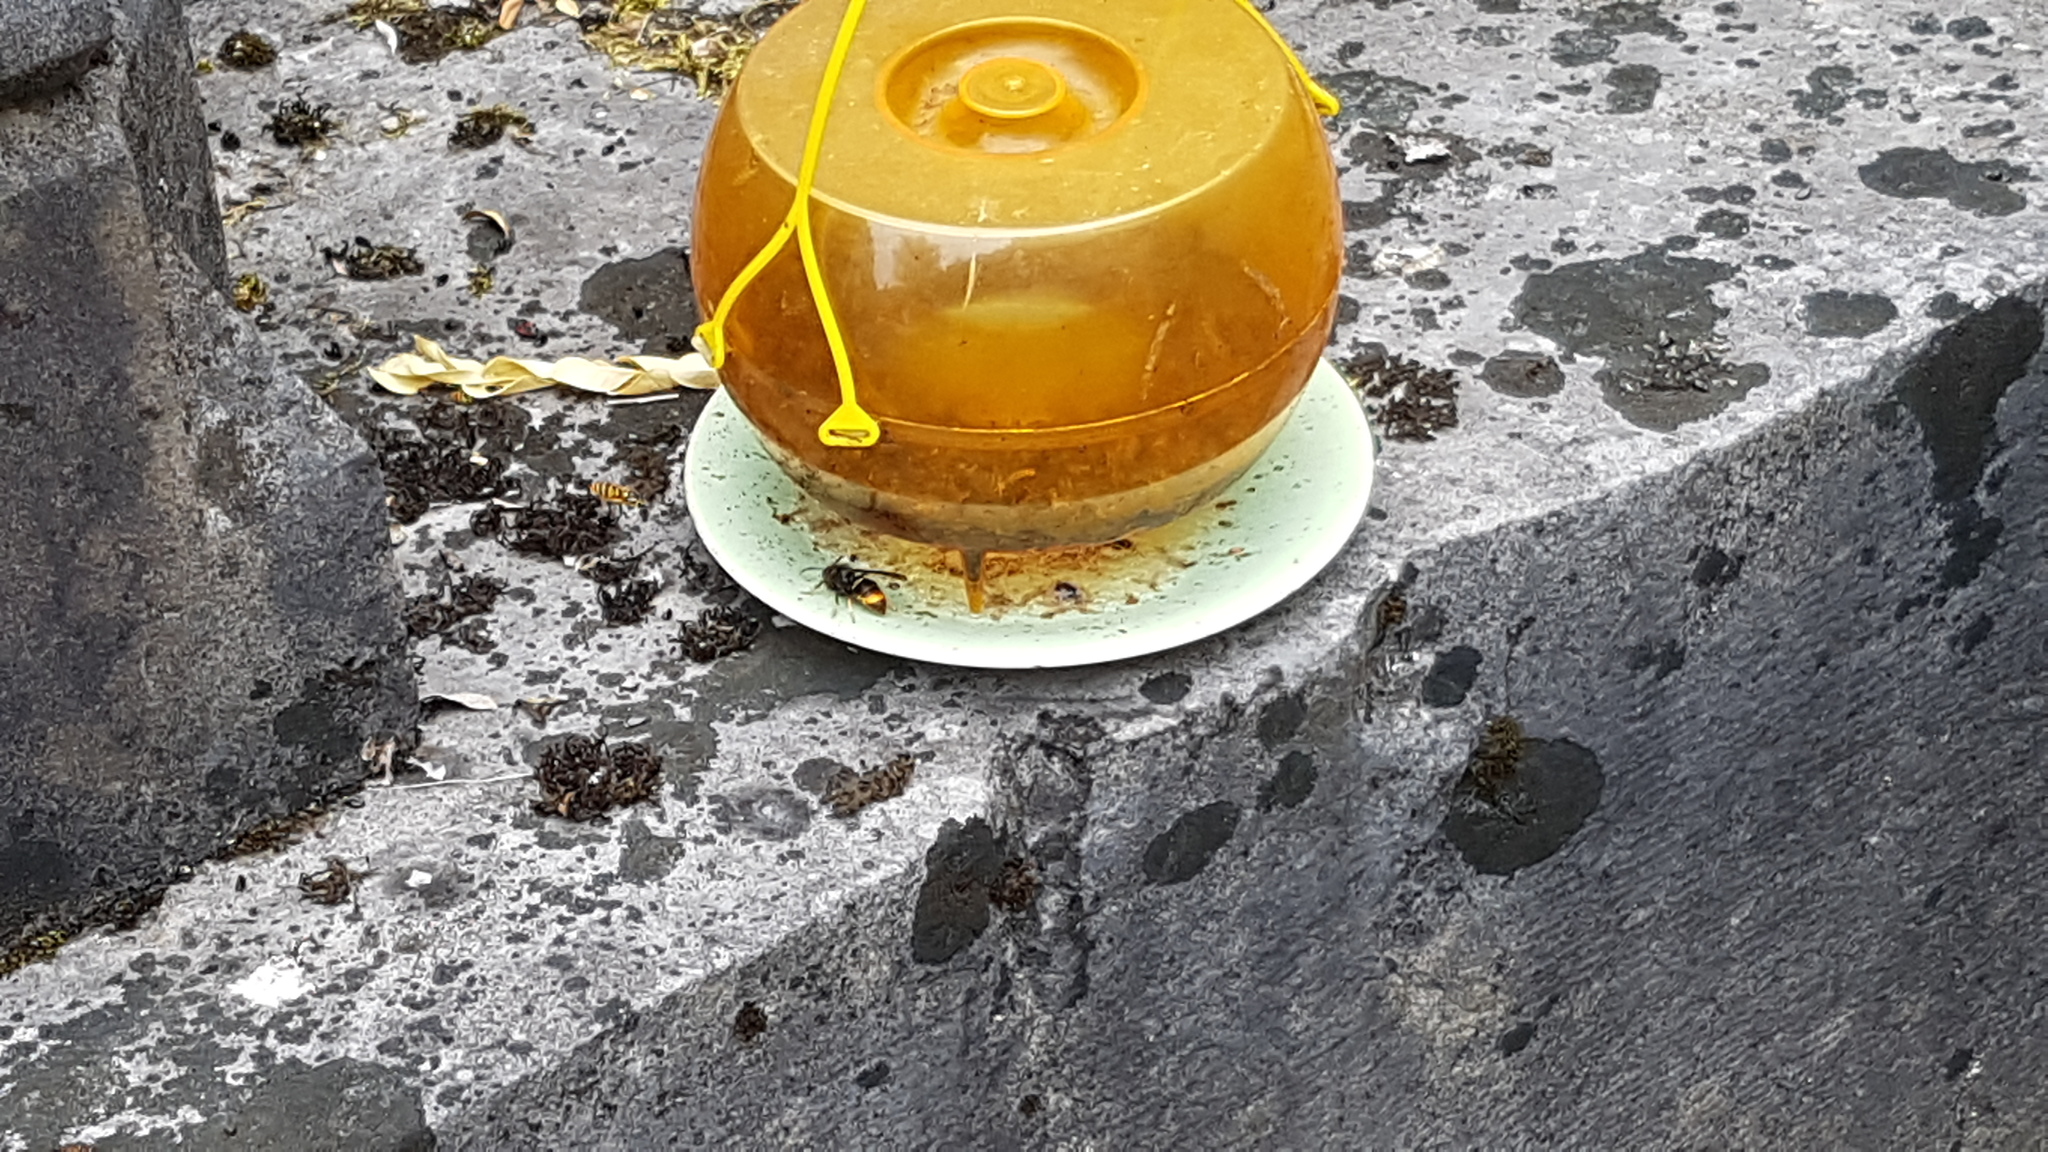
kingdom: Animalia
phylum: Arthropoda
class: Insecta
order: Hymenoptera
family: Vespidae
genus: Vespa
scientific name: Vespa velutina
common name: Asian hornet
